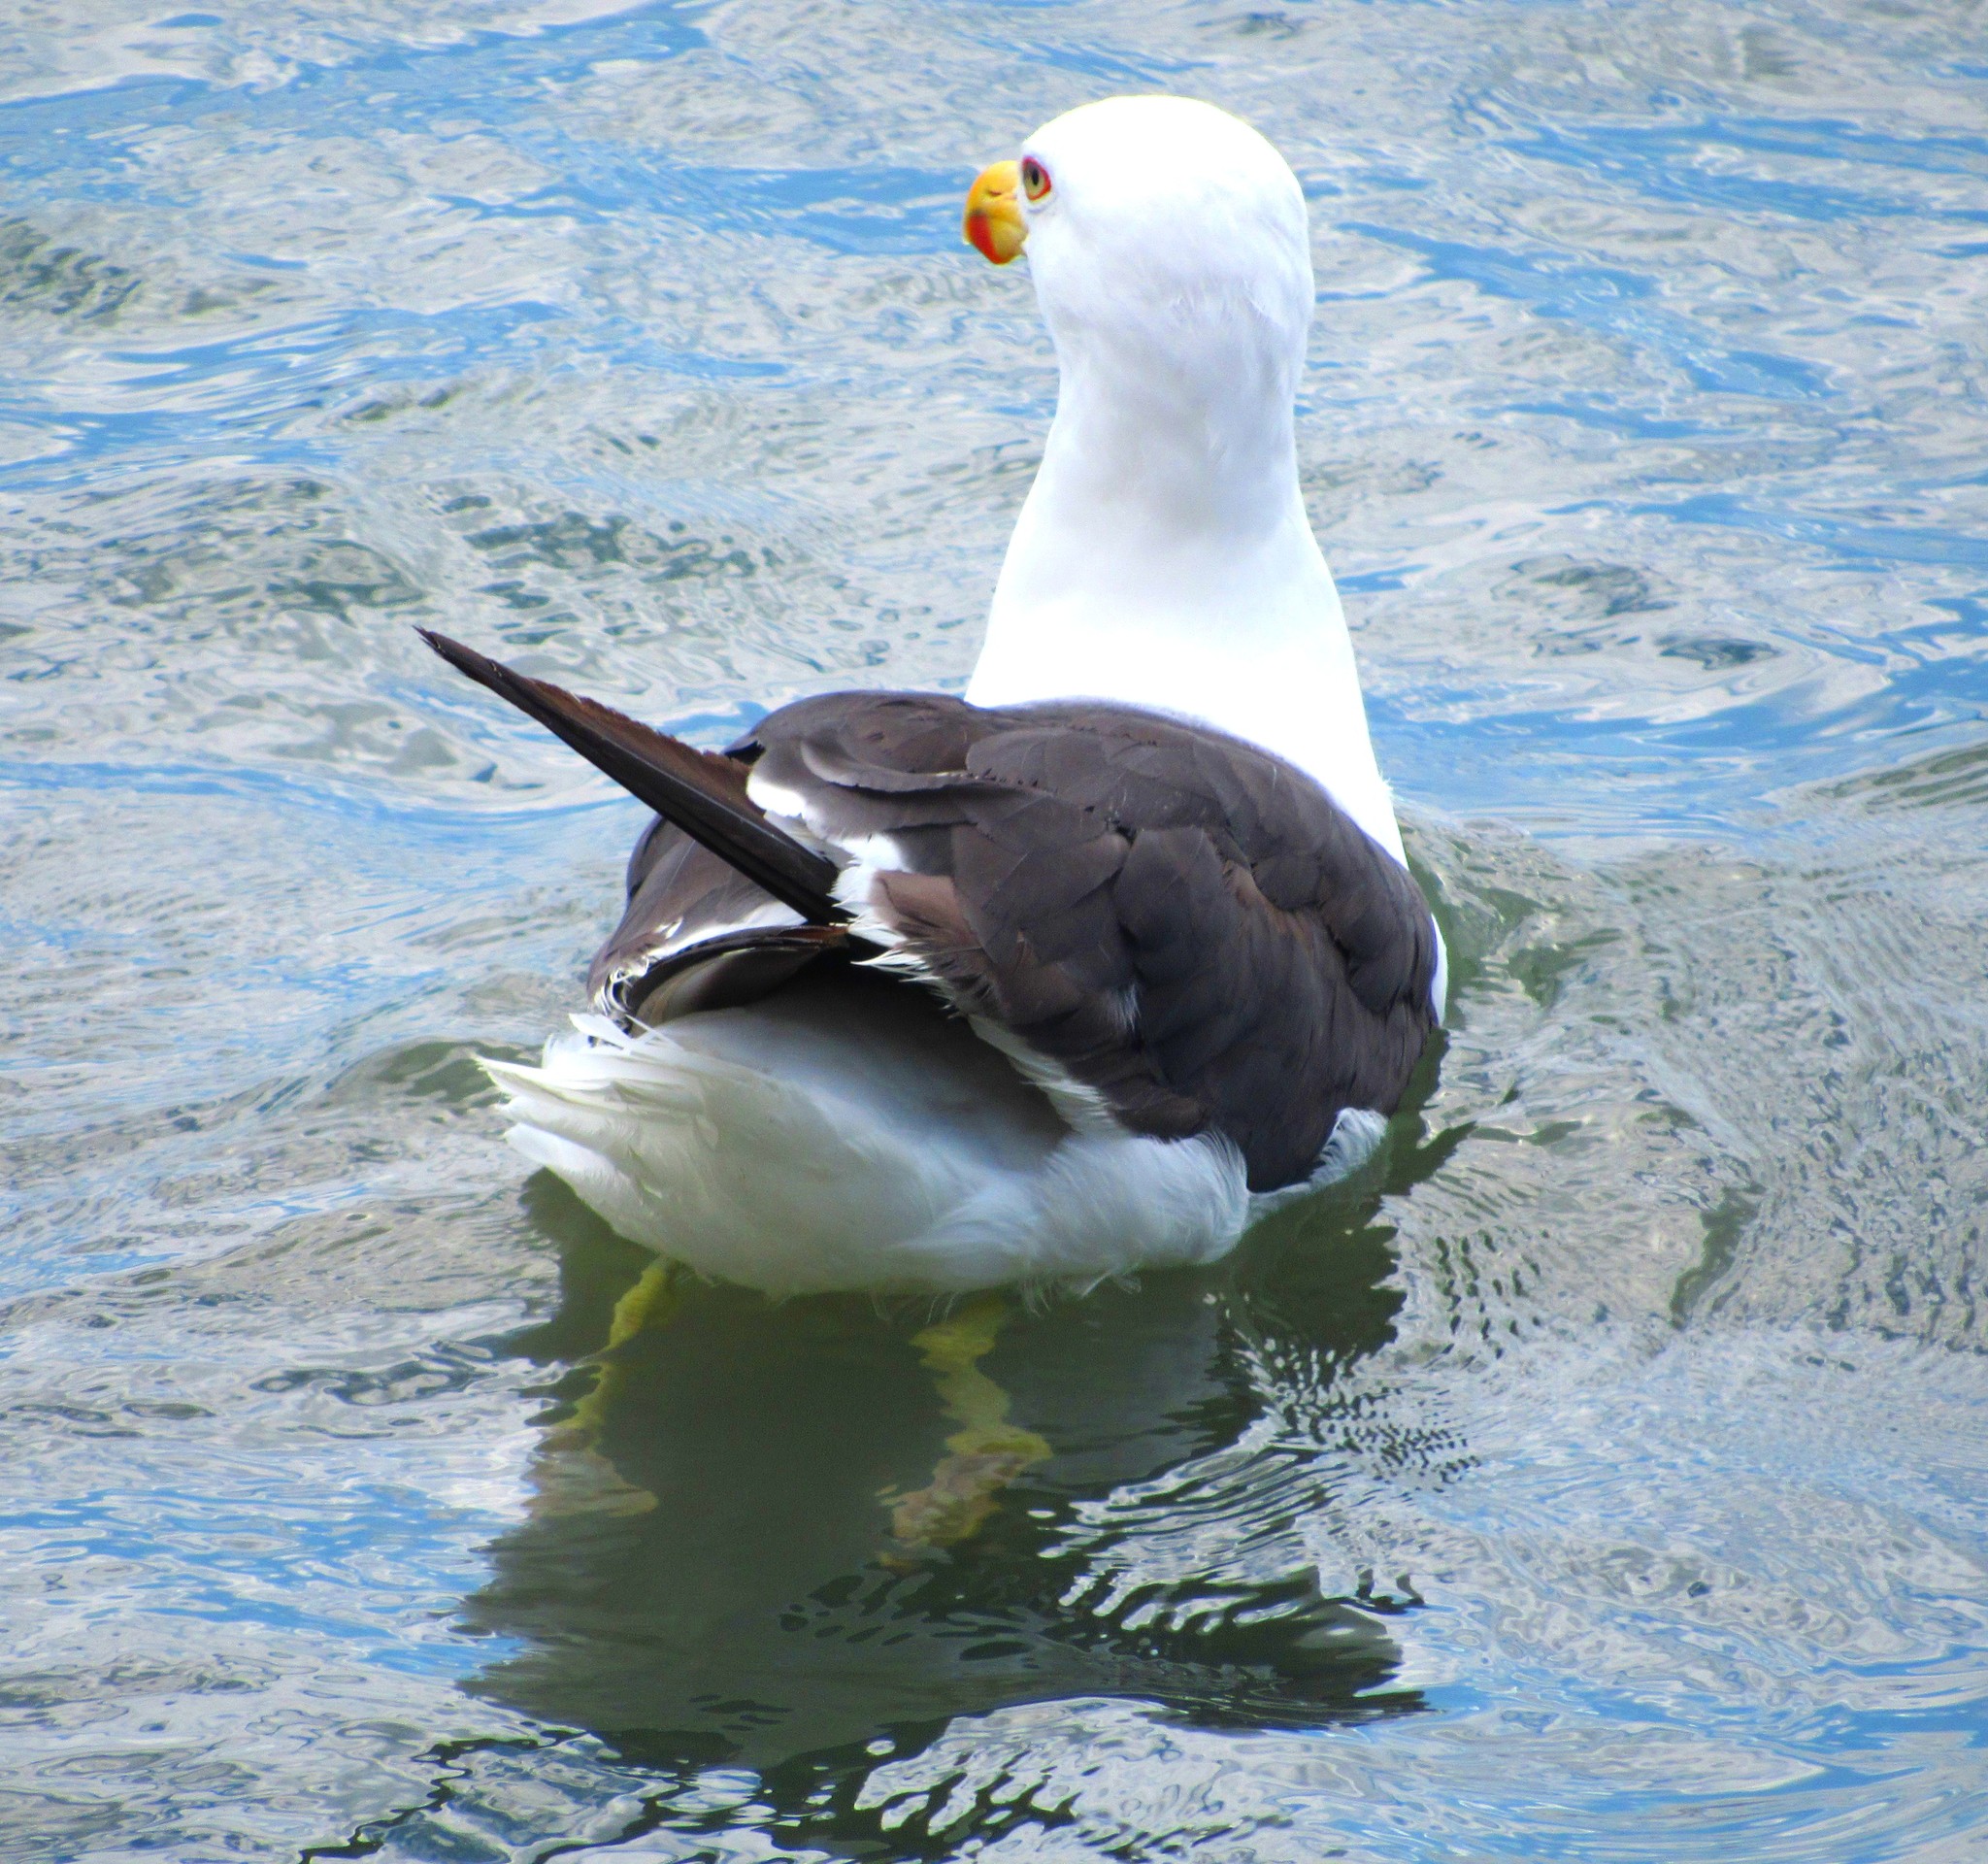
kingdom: Animalia
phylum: Chordata
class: Aves
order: Charadriiformes
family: Laridae
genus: Larus
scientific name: Larus dominicanus
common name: Kelp gull
